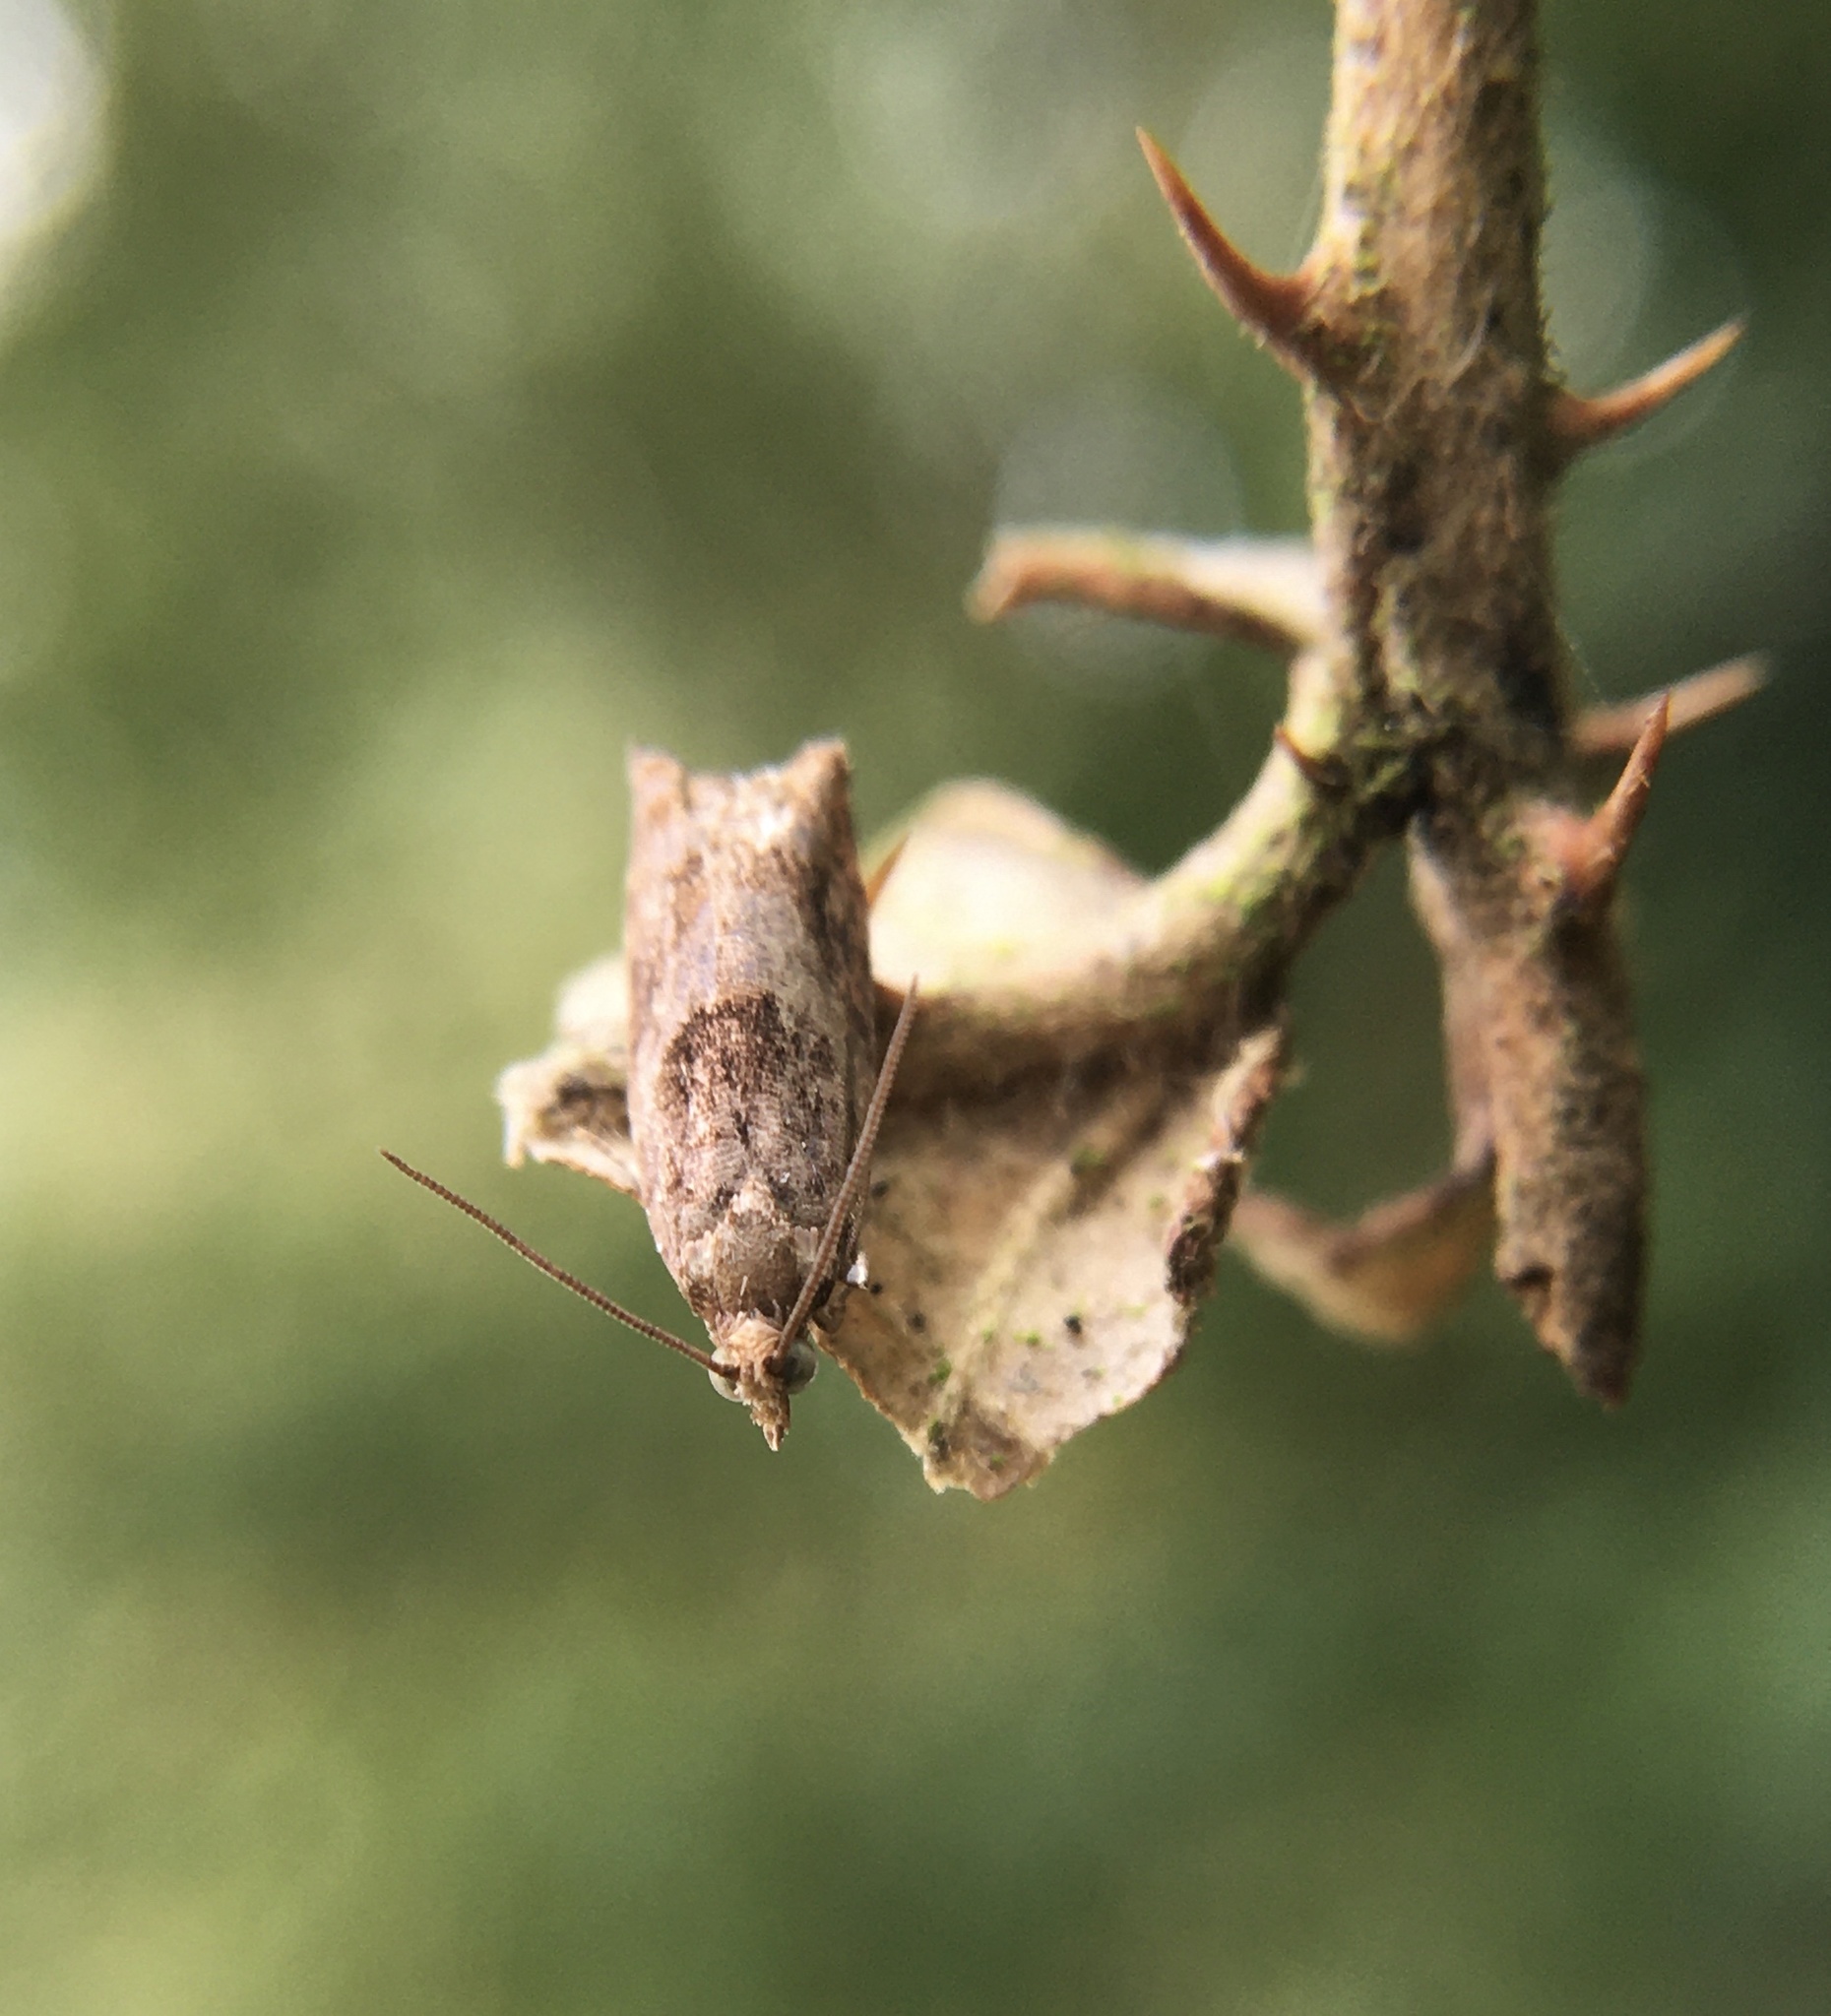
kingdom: Animalia
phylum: Arthropoda
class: Insecta
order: Lepidoptera
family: Tortricidae
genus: Rhopobota
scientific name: Rhopobota naevana
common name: Blackheaded fireworm, holly tortrix
